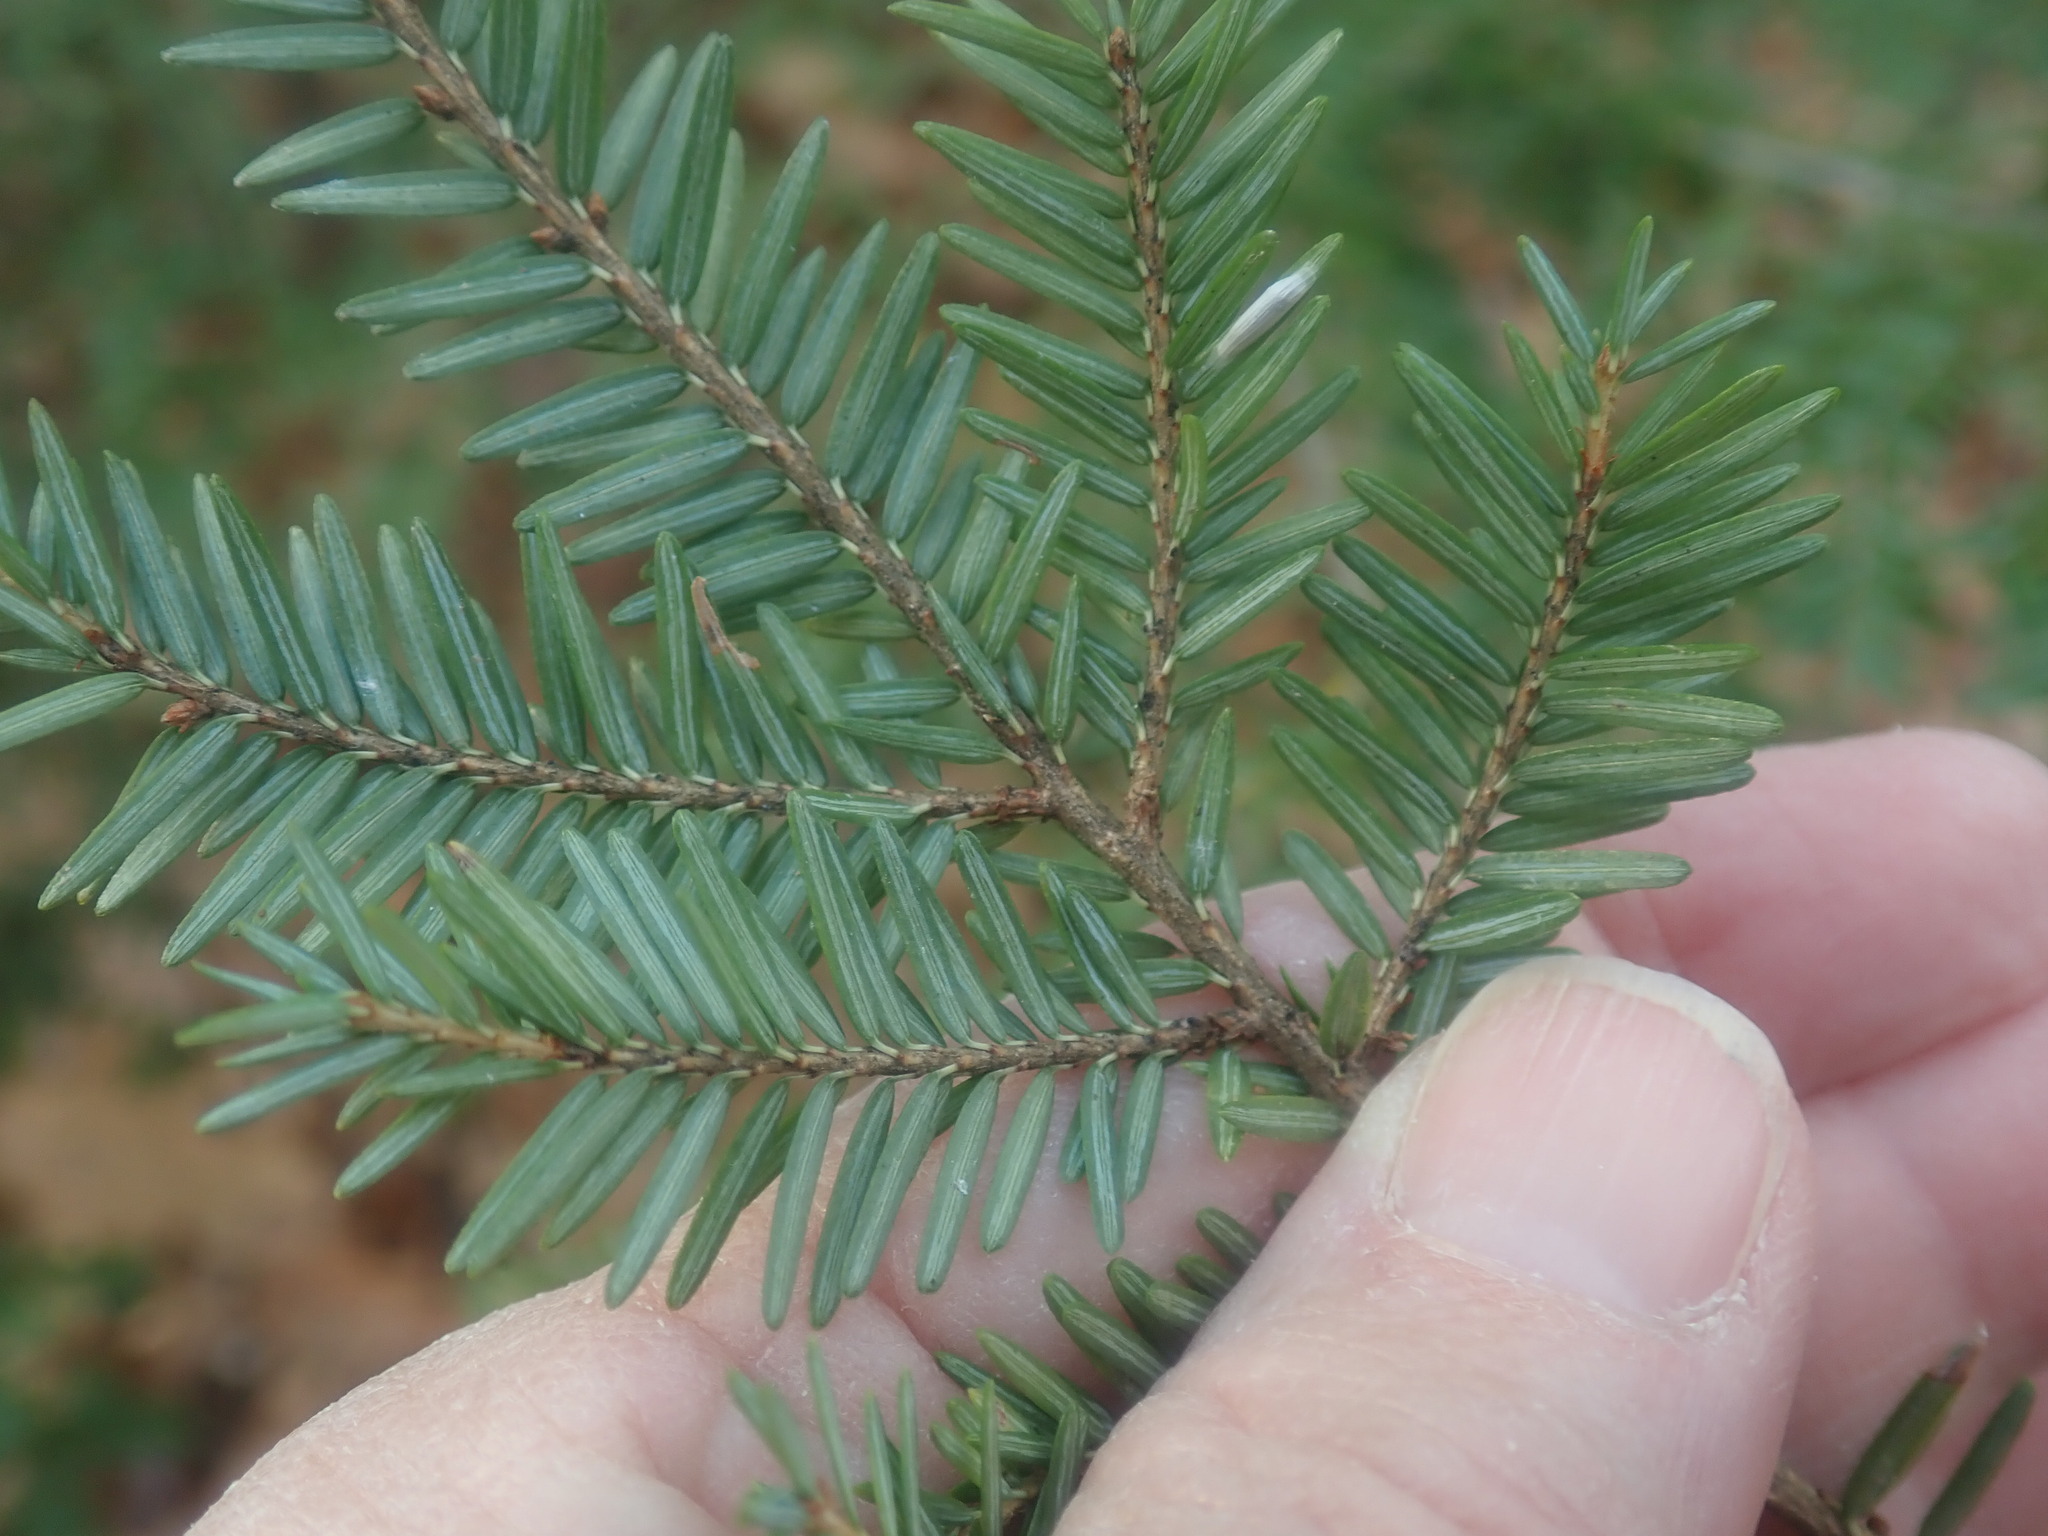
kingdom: Plantae
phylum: Tracheophyta
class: Pinopsida
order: Pinales
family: Pinaceae
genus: Tsuga
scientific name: Tsuga canadensis
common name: Eastern hemlock
